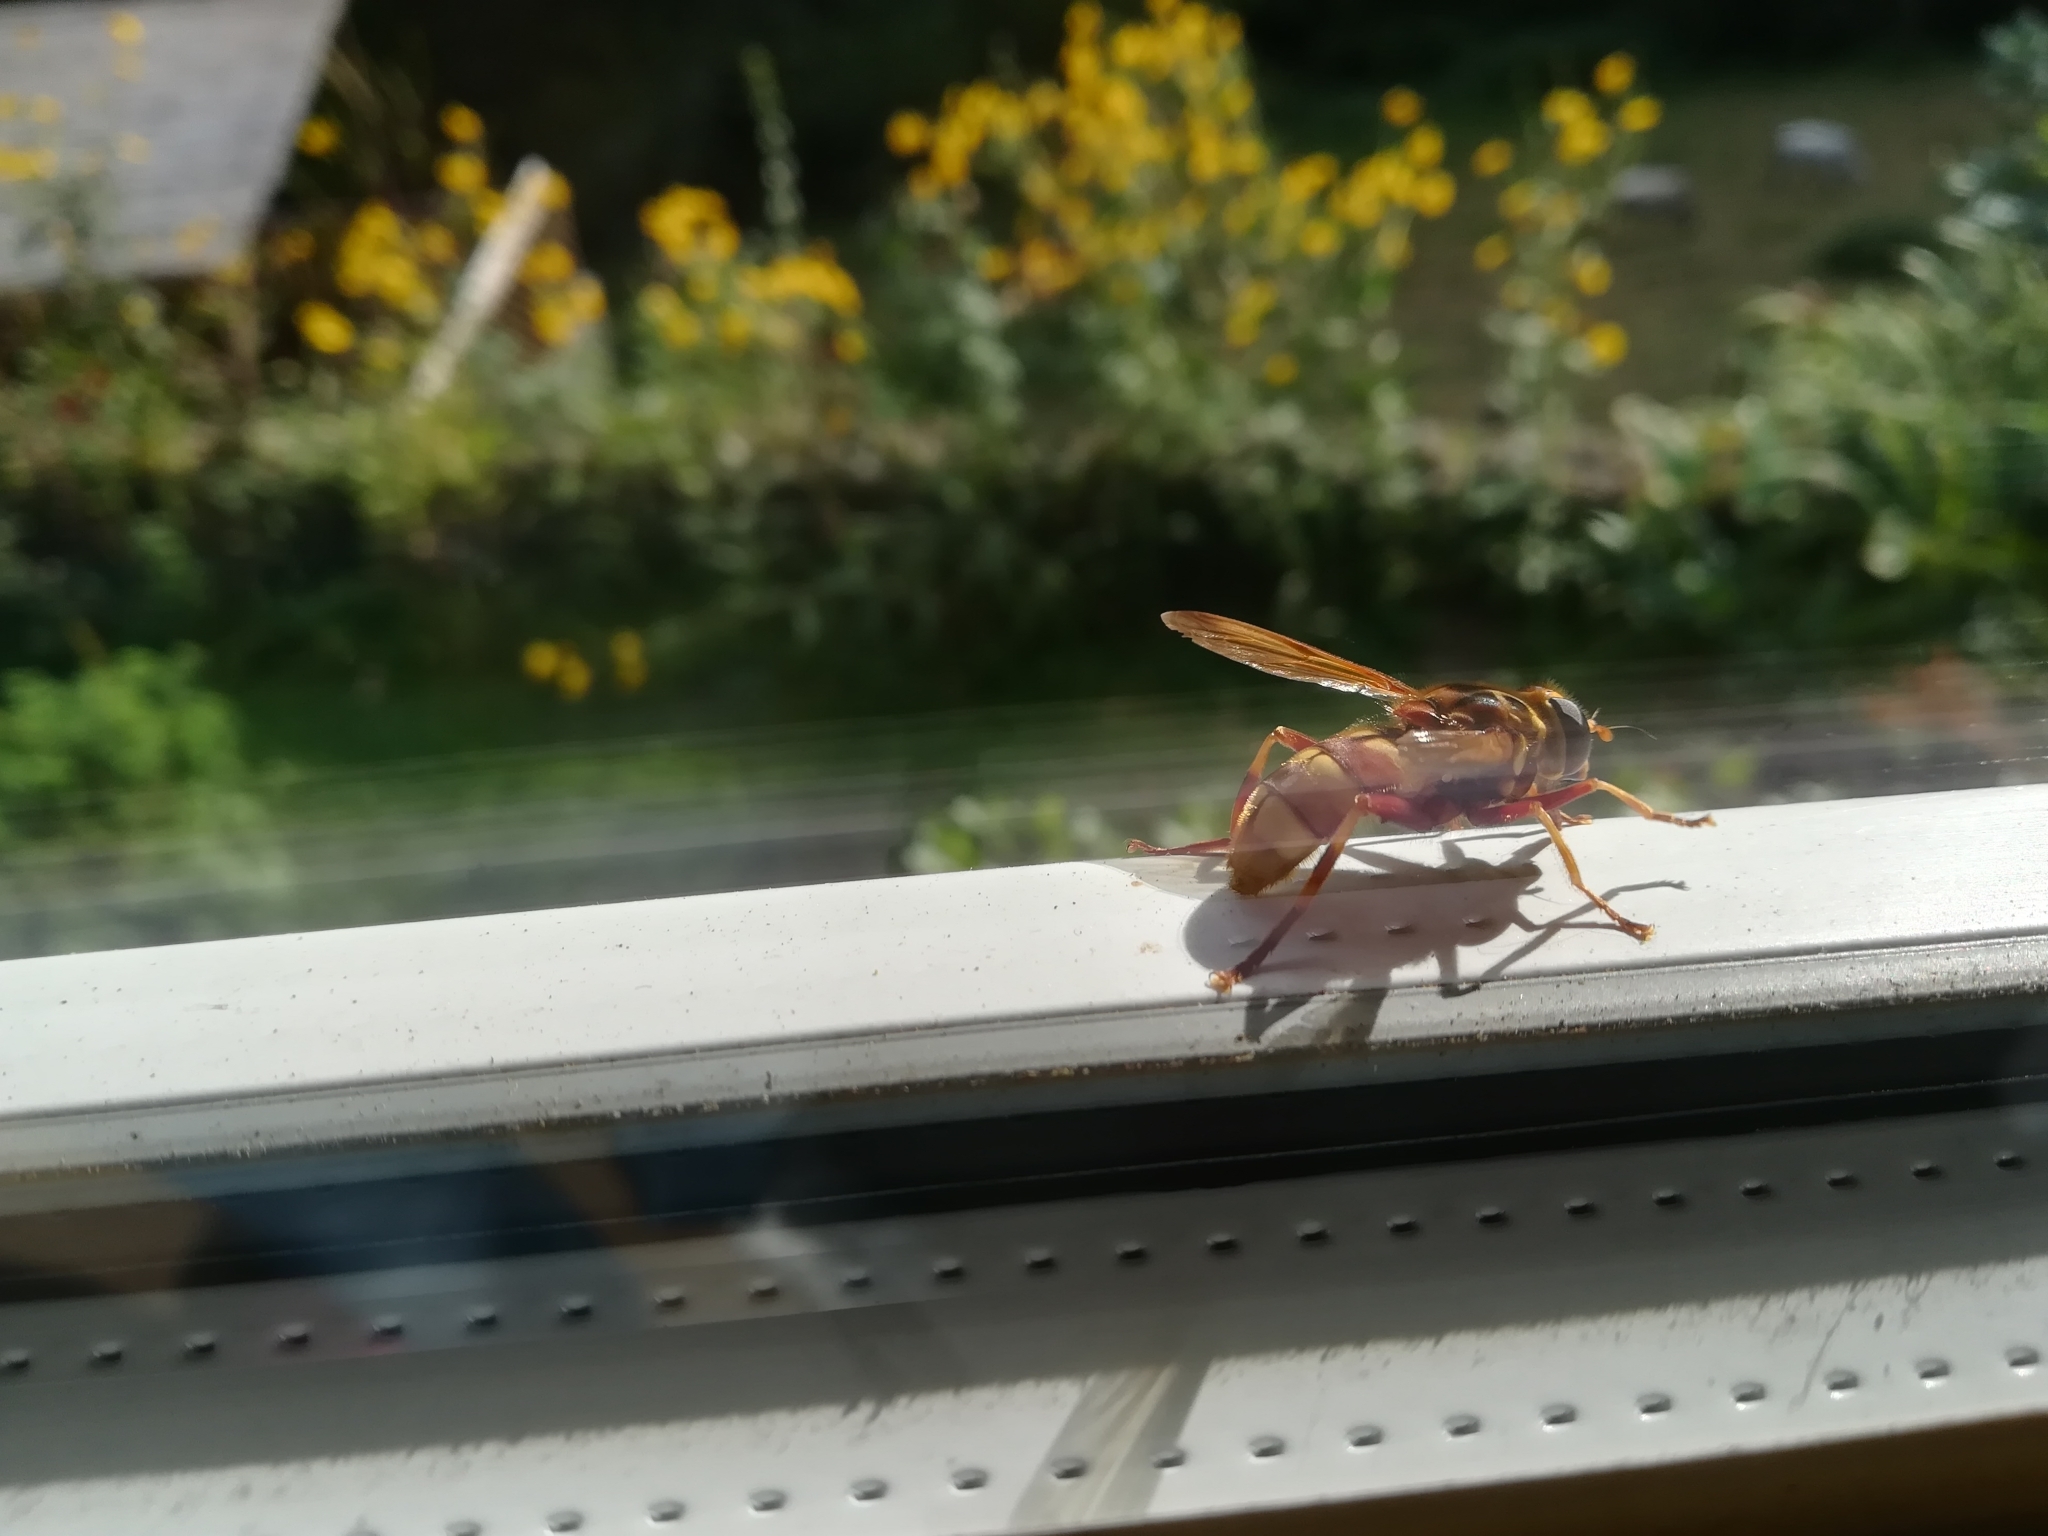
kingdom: Animalia
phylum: Arthropoda
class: Insecta
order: Diptera
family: Syrphidae
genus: Milesia
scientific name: Milesia crabroniformis
